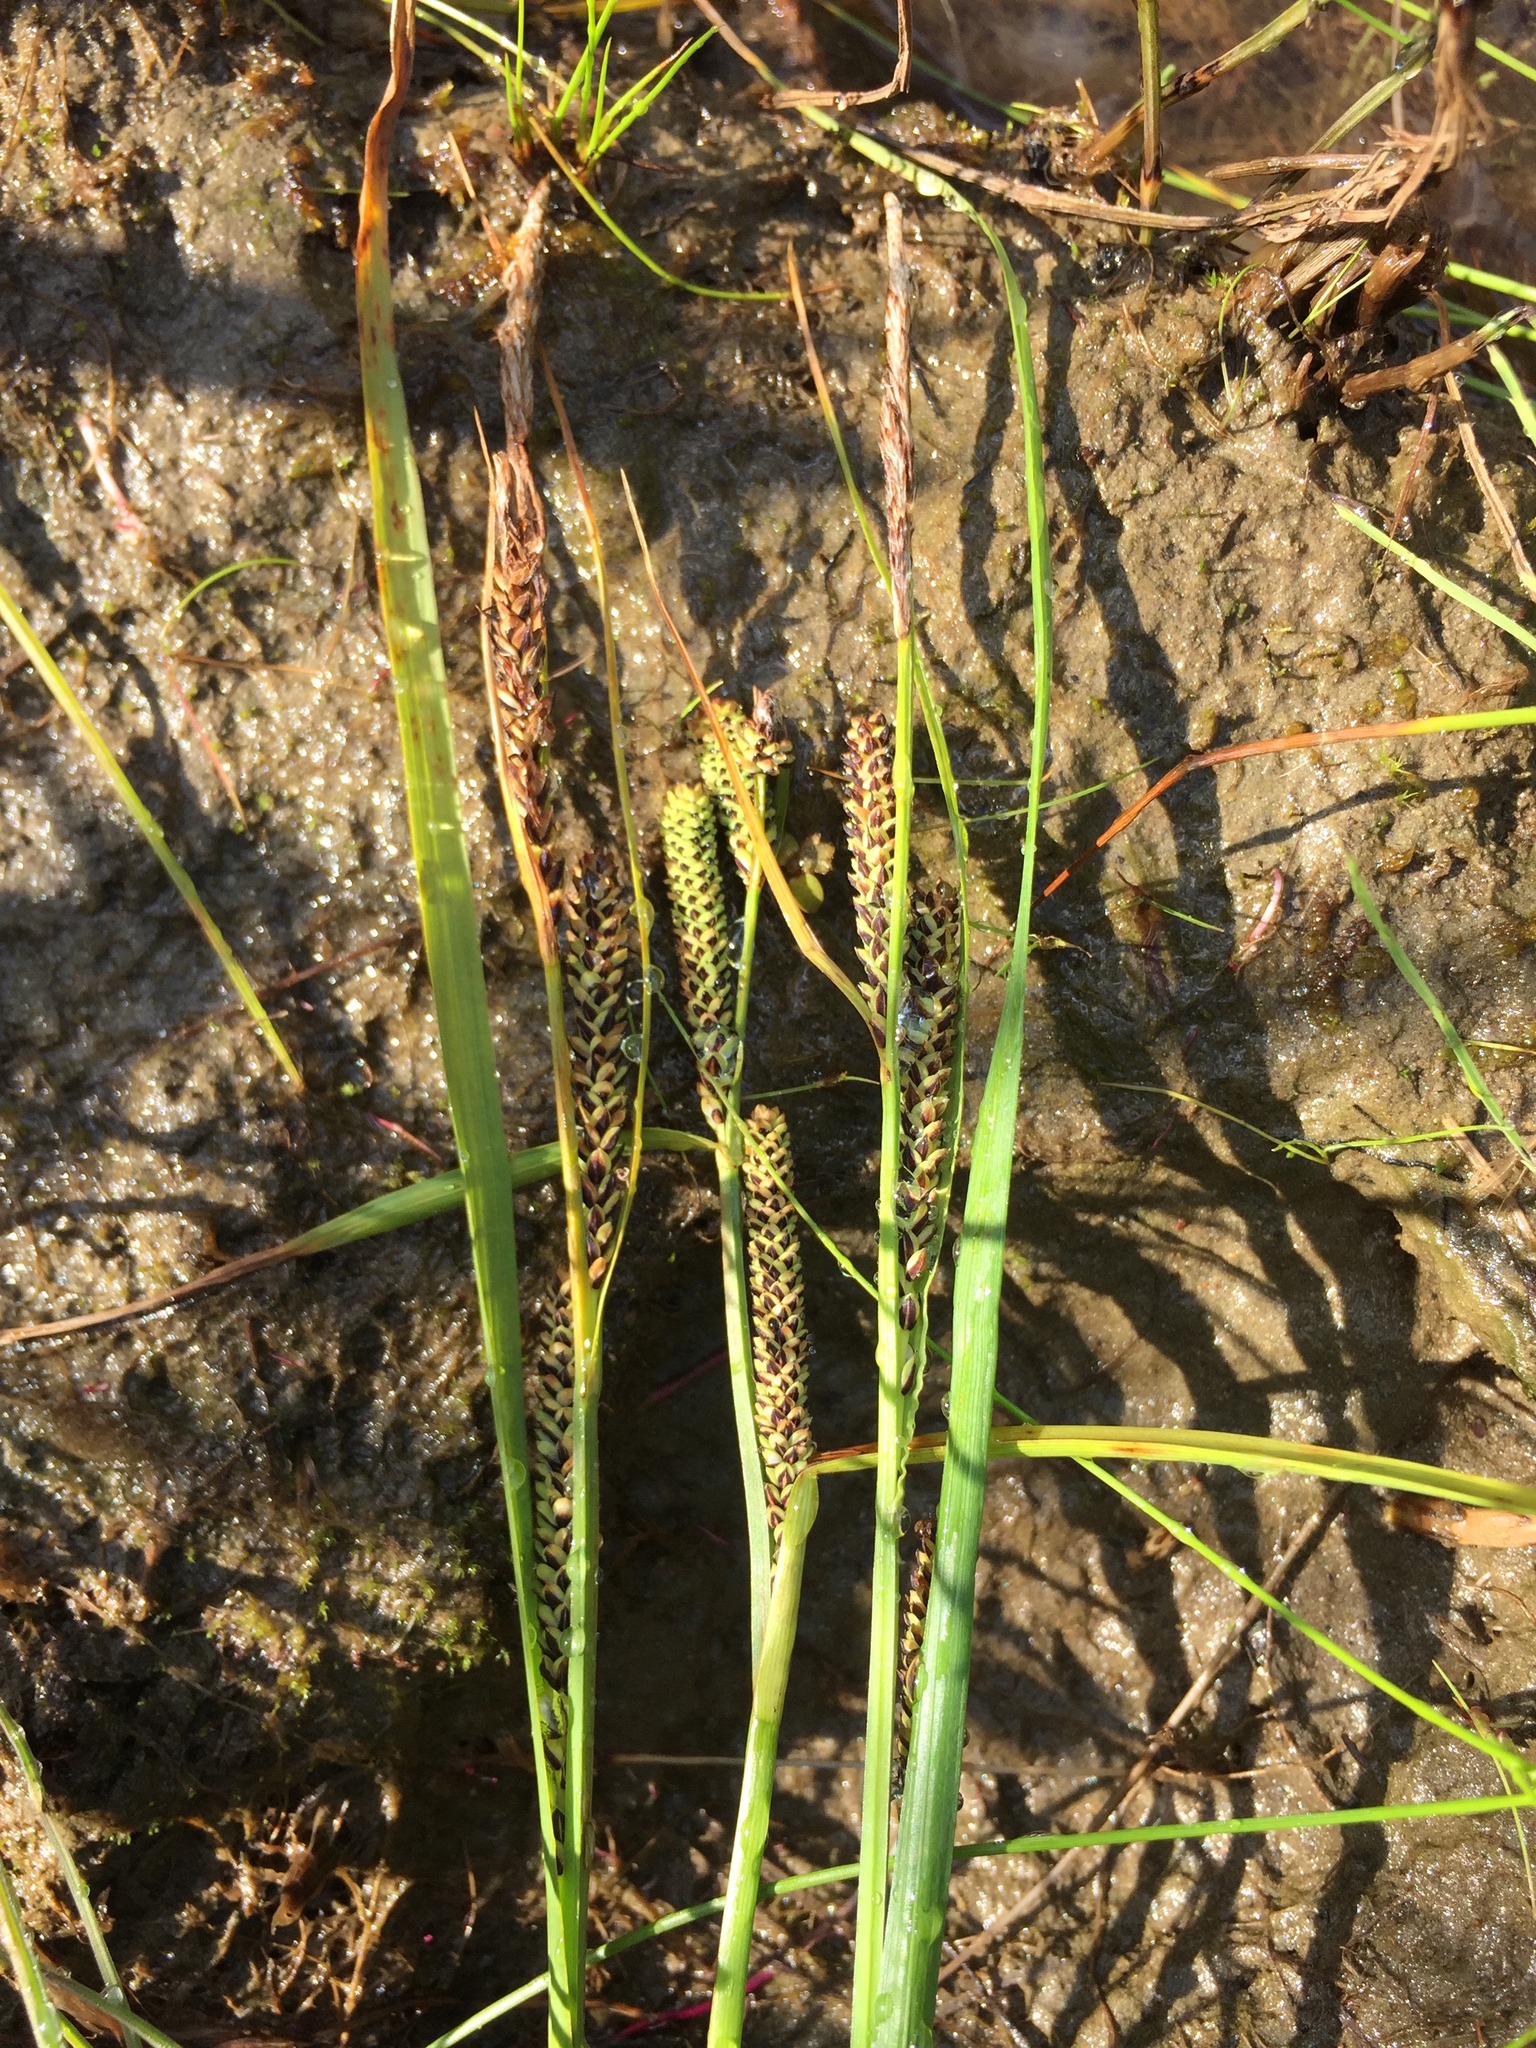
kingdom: Plantae
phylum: Tracheophyta
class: Liliopsida
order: Poales
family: Cyperaceae
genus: Carex
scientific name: Carex aquatilis
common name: Water sedge
